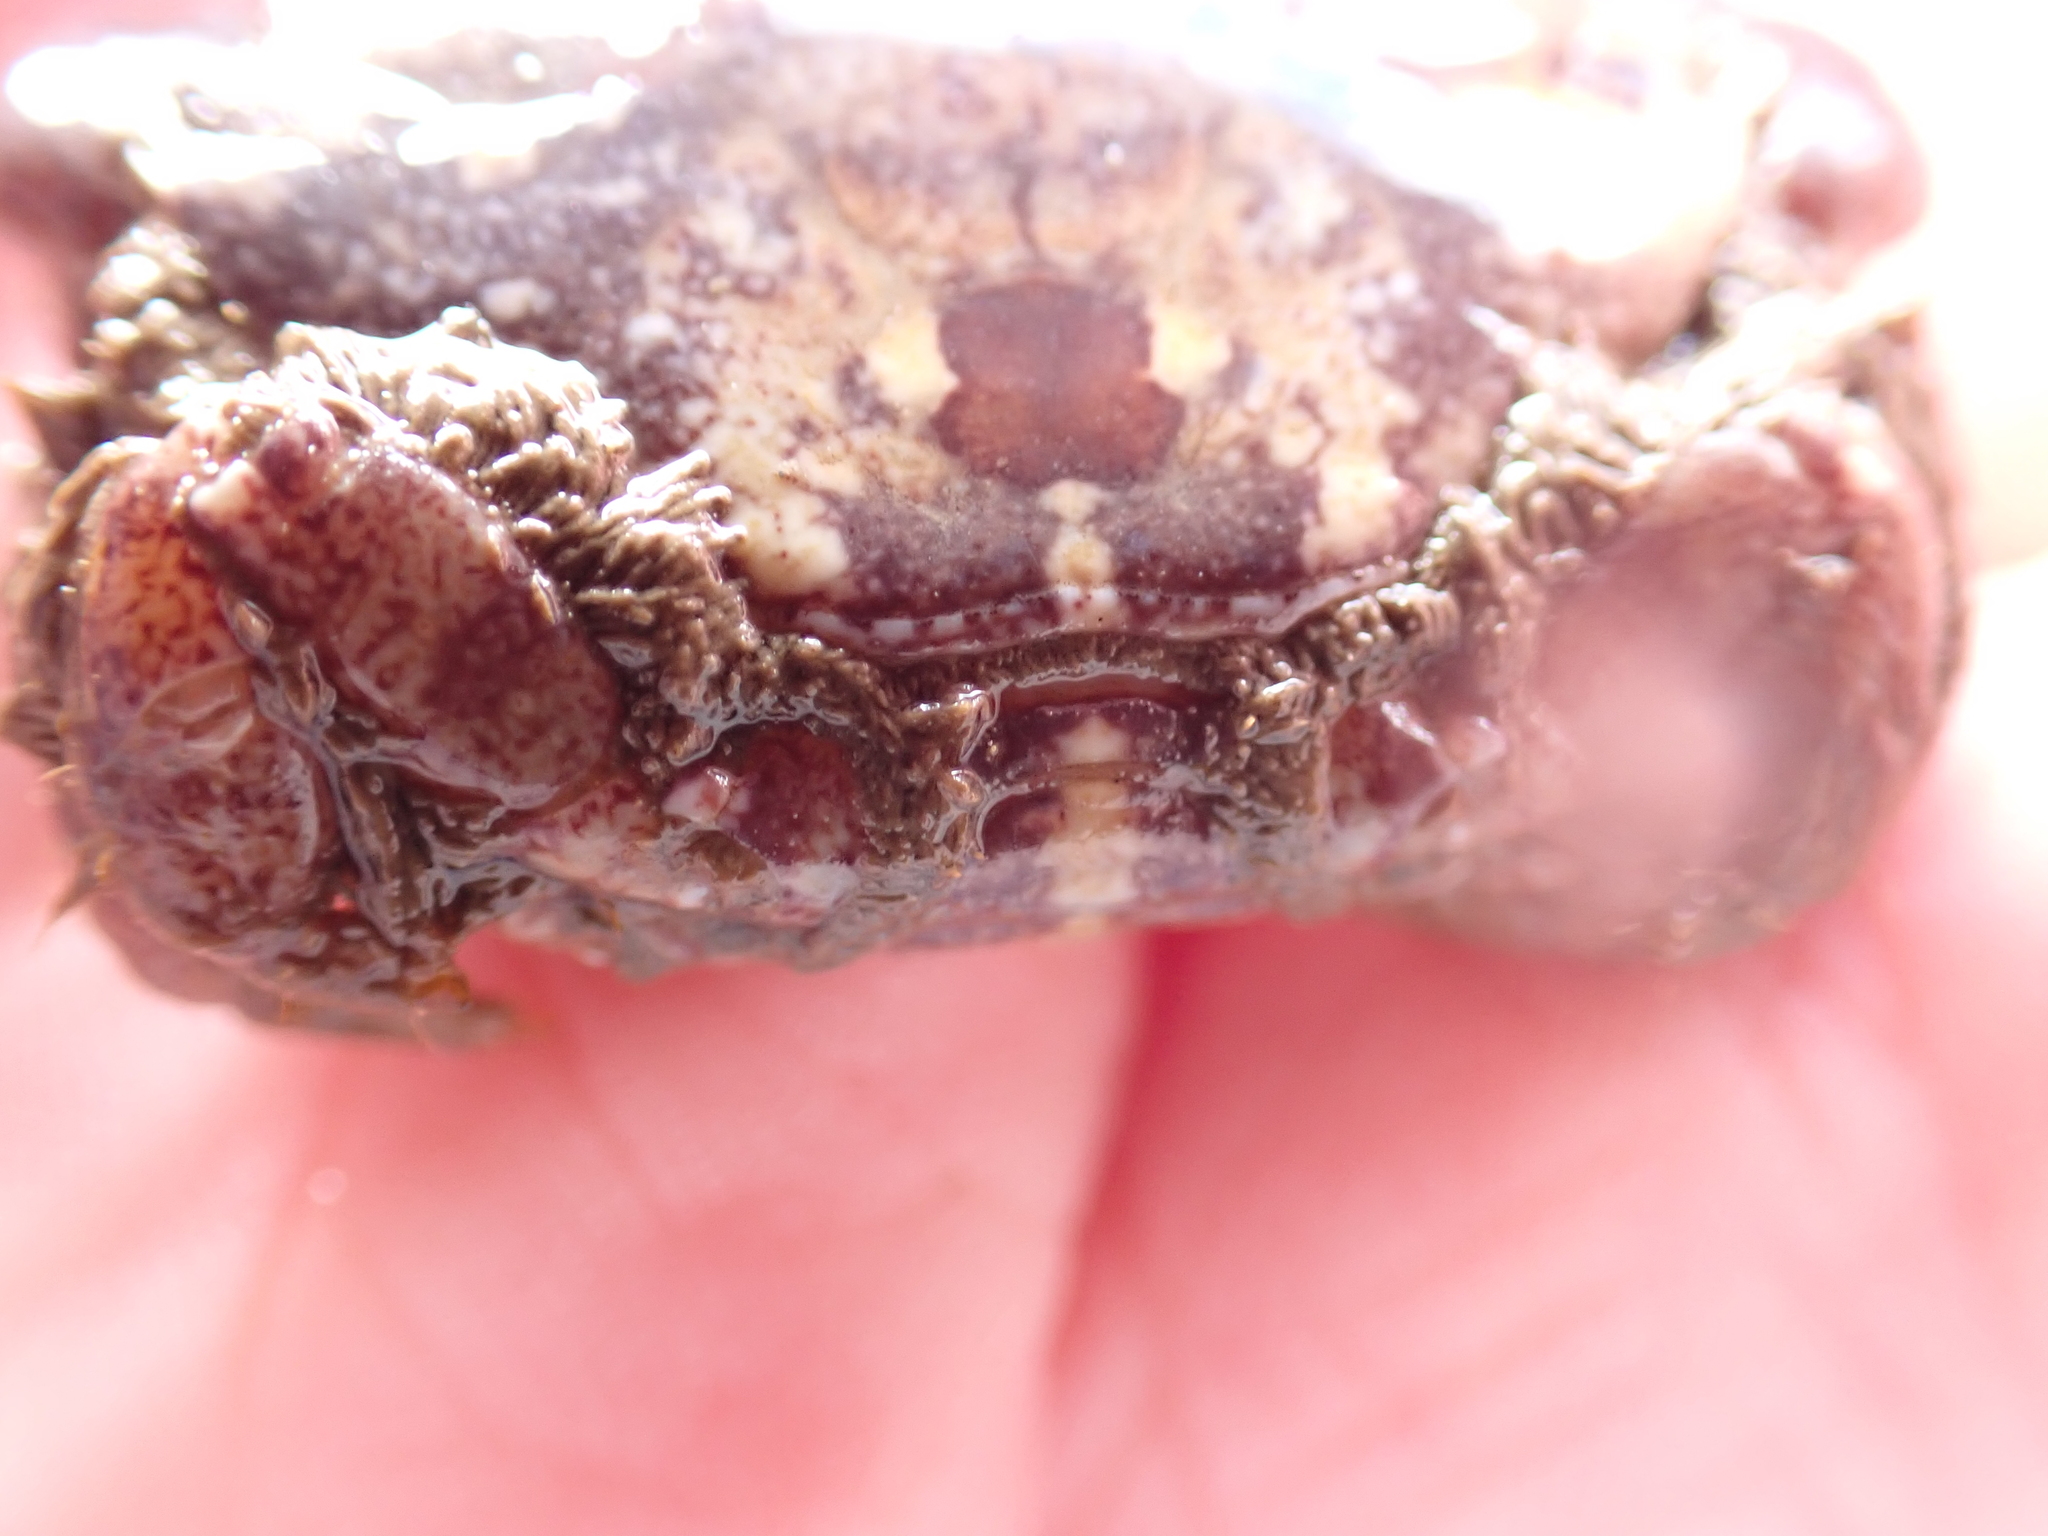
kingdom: Animalia
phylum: Arthropoda
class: Malacostraca
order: Decapoda
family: Xanthidae
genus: Xantho
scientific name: Xantho pilipes
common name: Risso's crab
